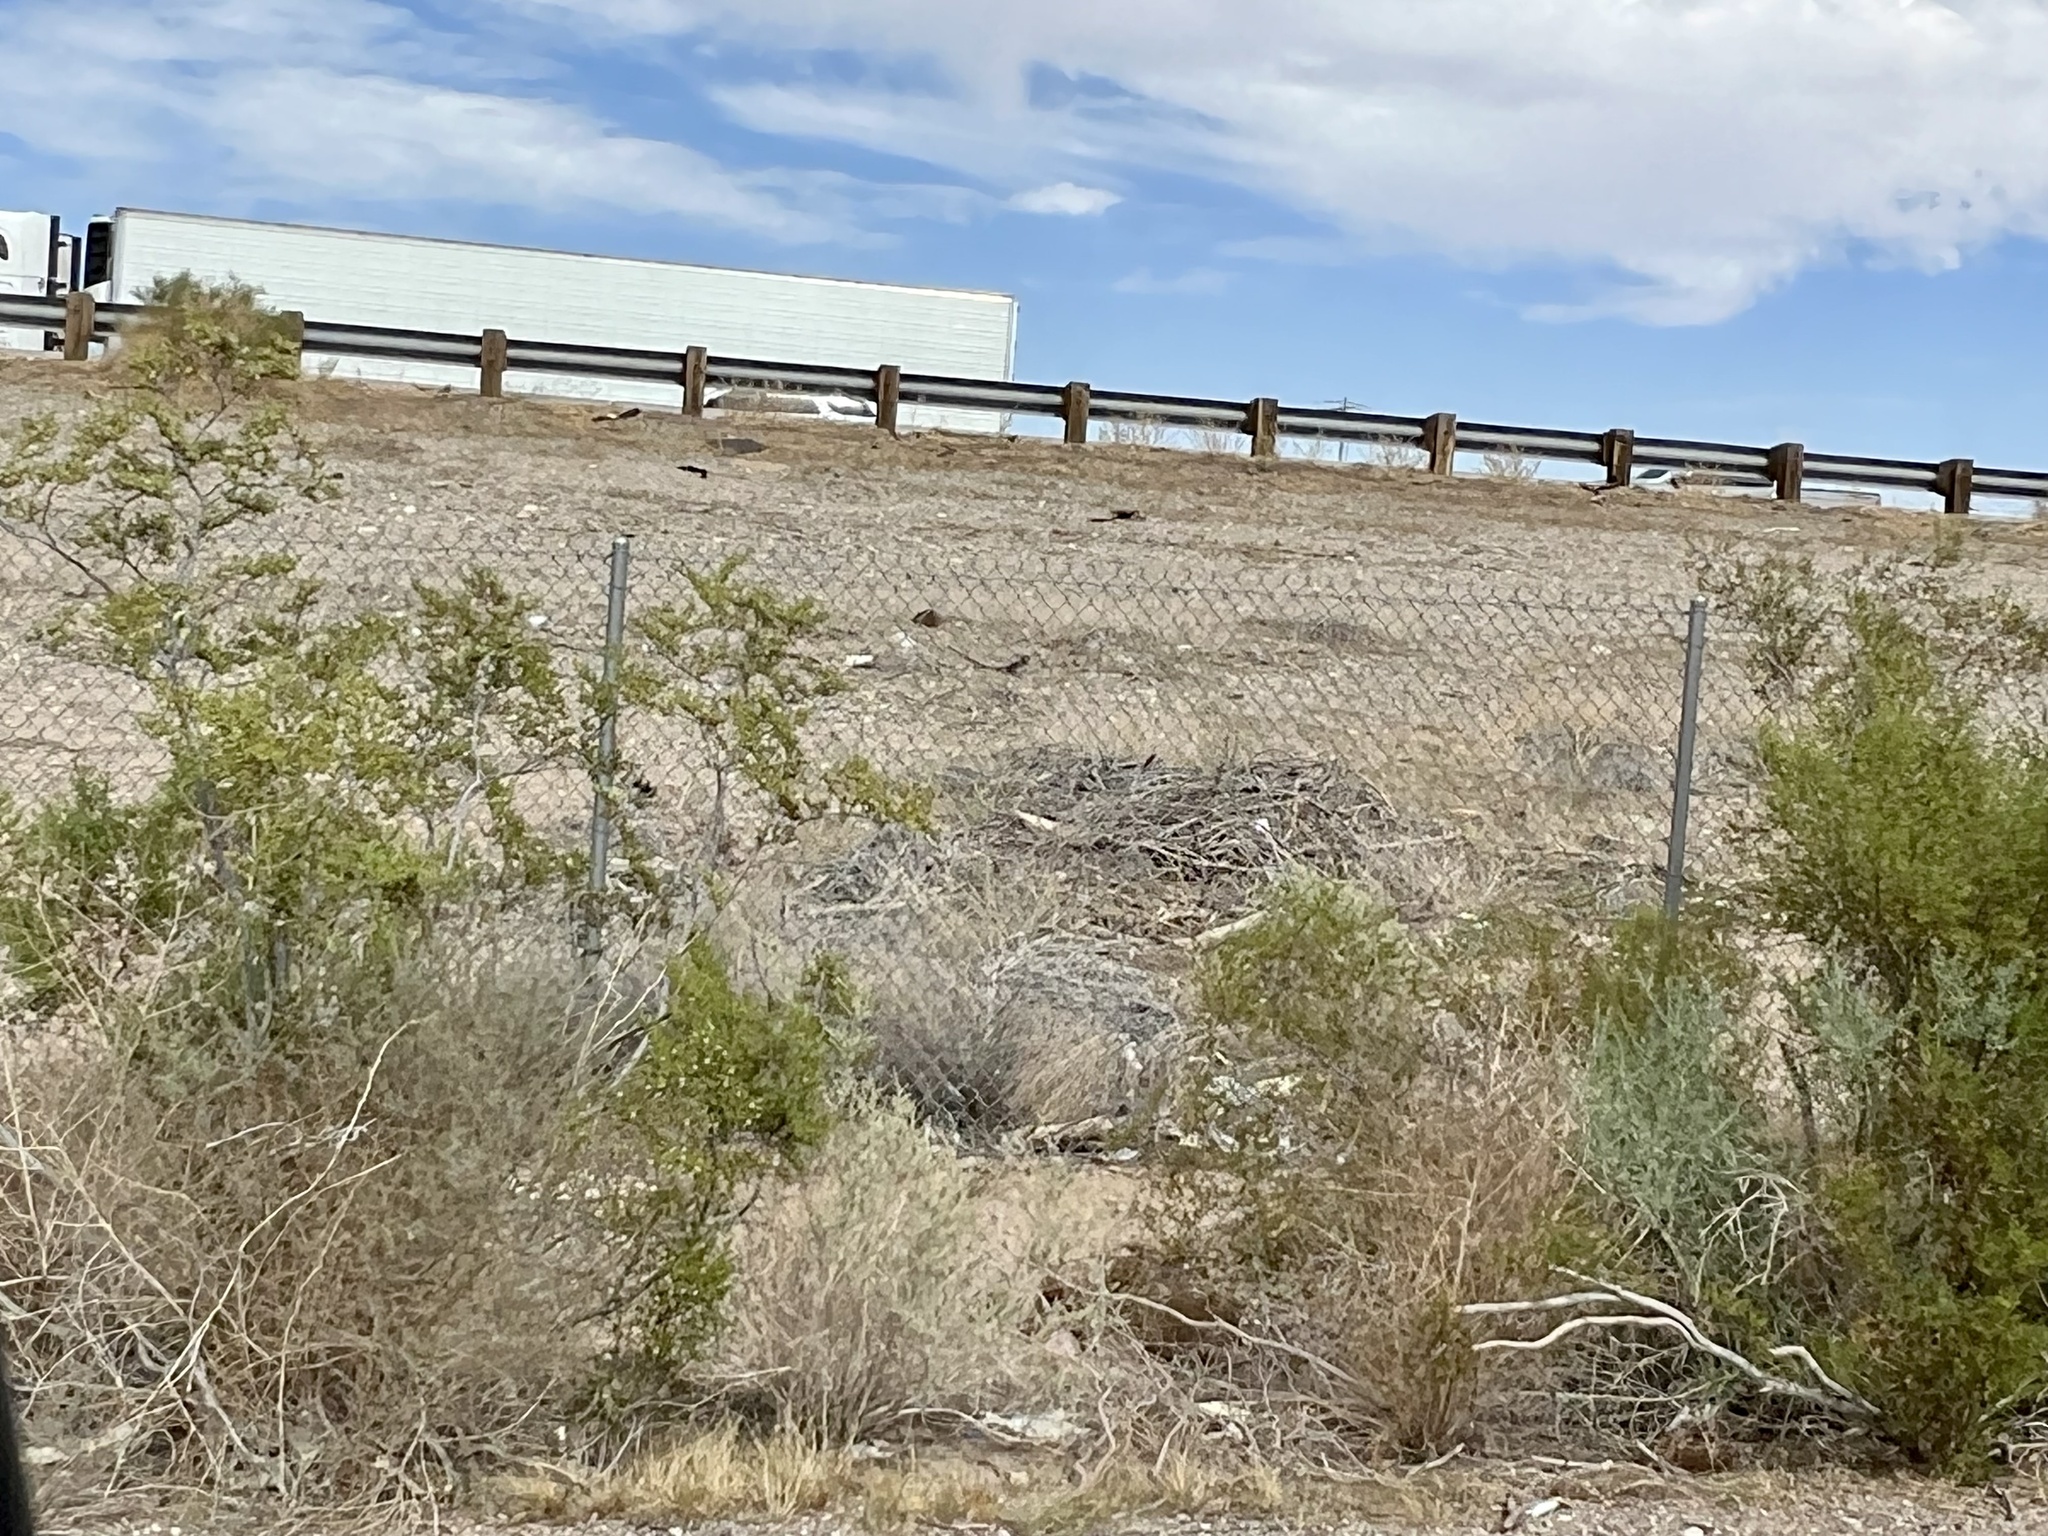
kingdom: Plantae
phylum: Tracheophyta
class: Magnoliopsida
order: Zygophyllales
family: Zygophyllaceae
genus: Larrea
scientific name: Larrea tridentata
